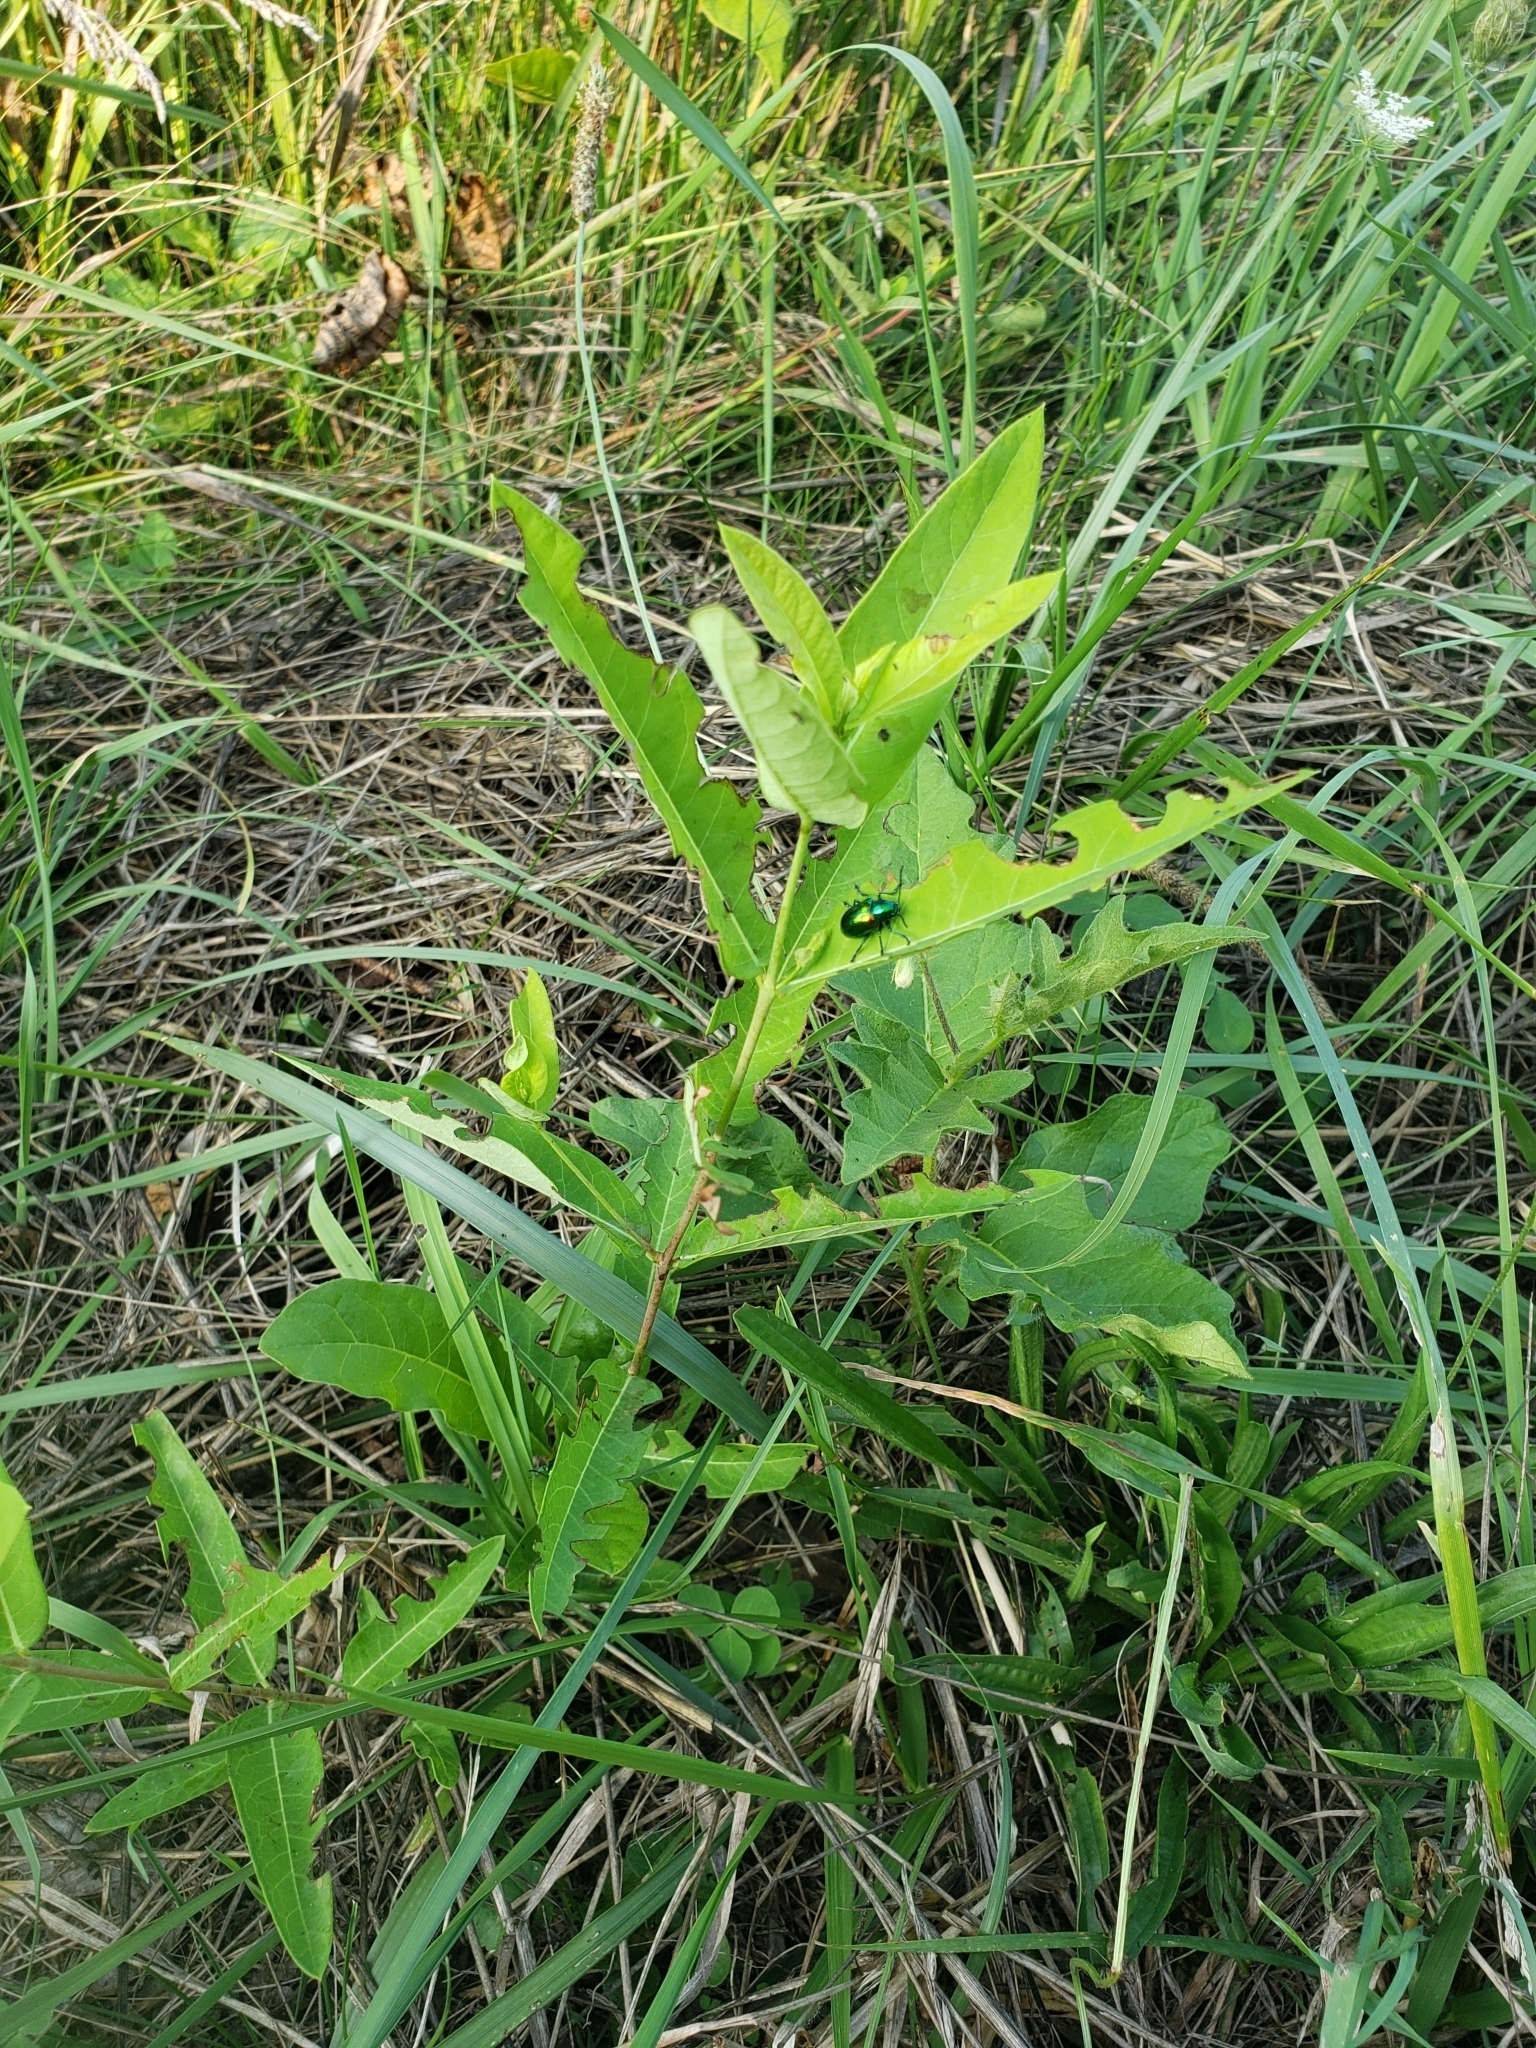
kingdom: Animalia
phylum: Arthropoda
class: Insecta
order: Coleoptera
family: Chrysomelidae
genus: Chrysochus
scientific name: Chrysochus auratus
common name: Dogbane leaf beetle
